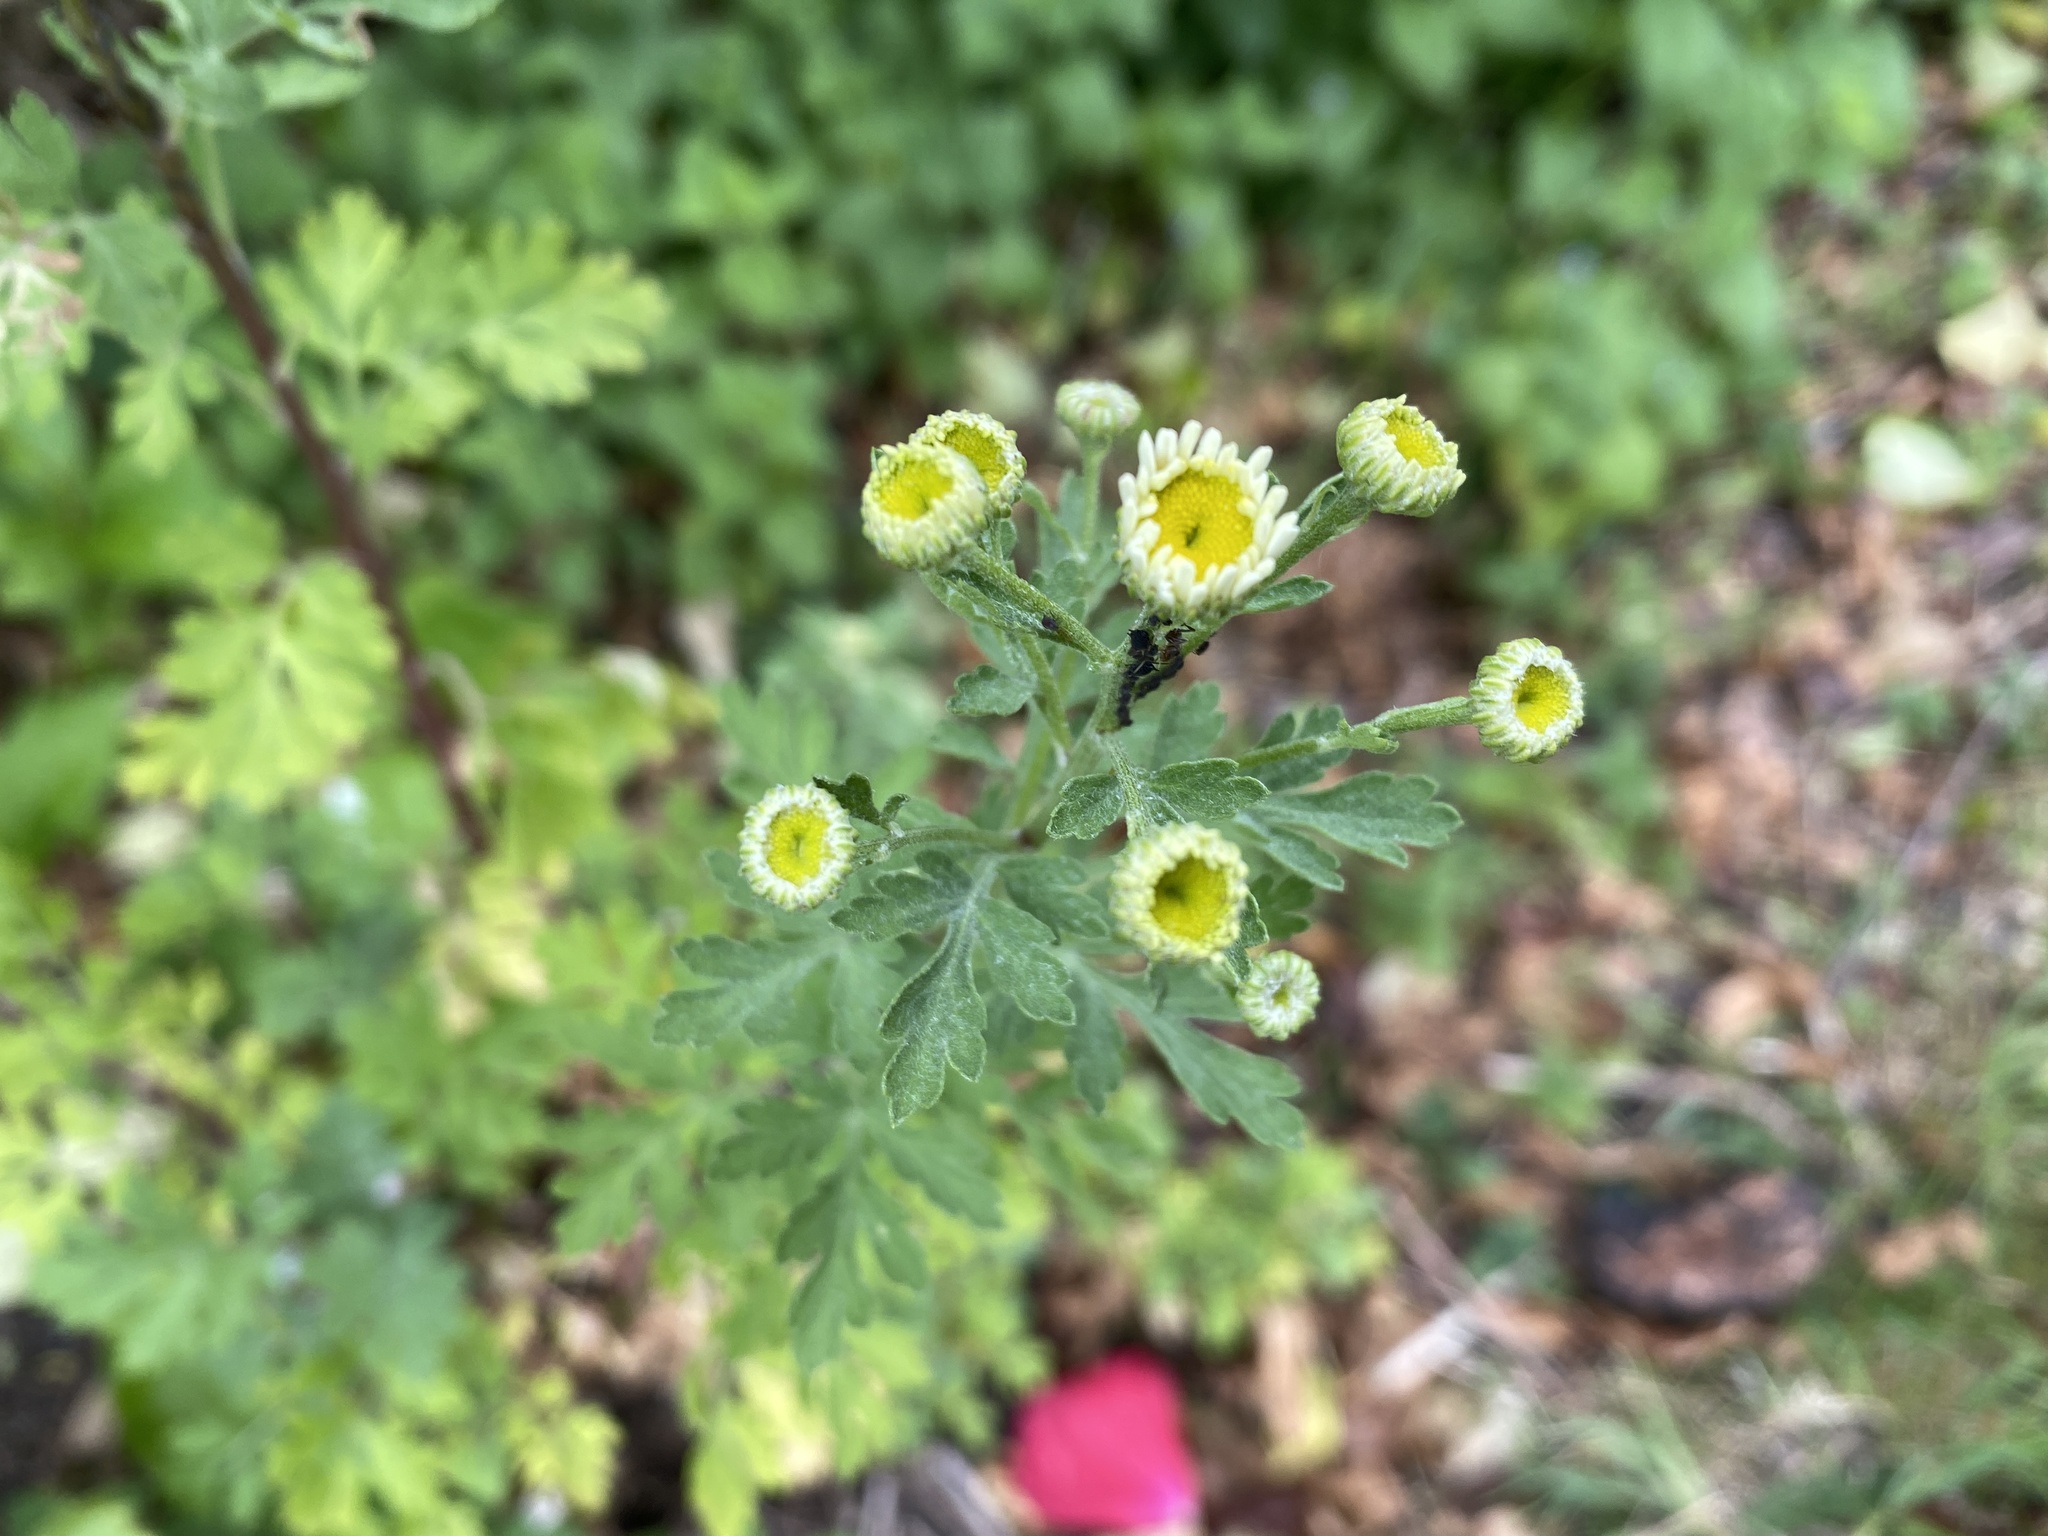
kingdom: Plantae
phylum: Tracheophyta
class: Magnoliopsida
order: Asterales
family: Asteraceae
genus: Tanacetum
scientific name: Tanacetum parthenium
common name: Feverfew
